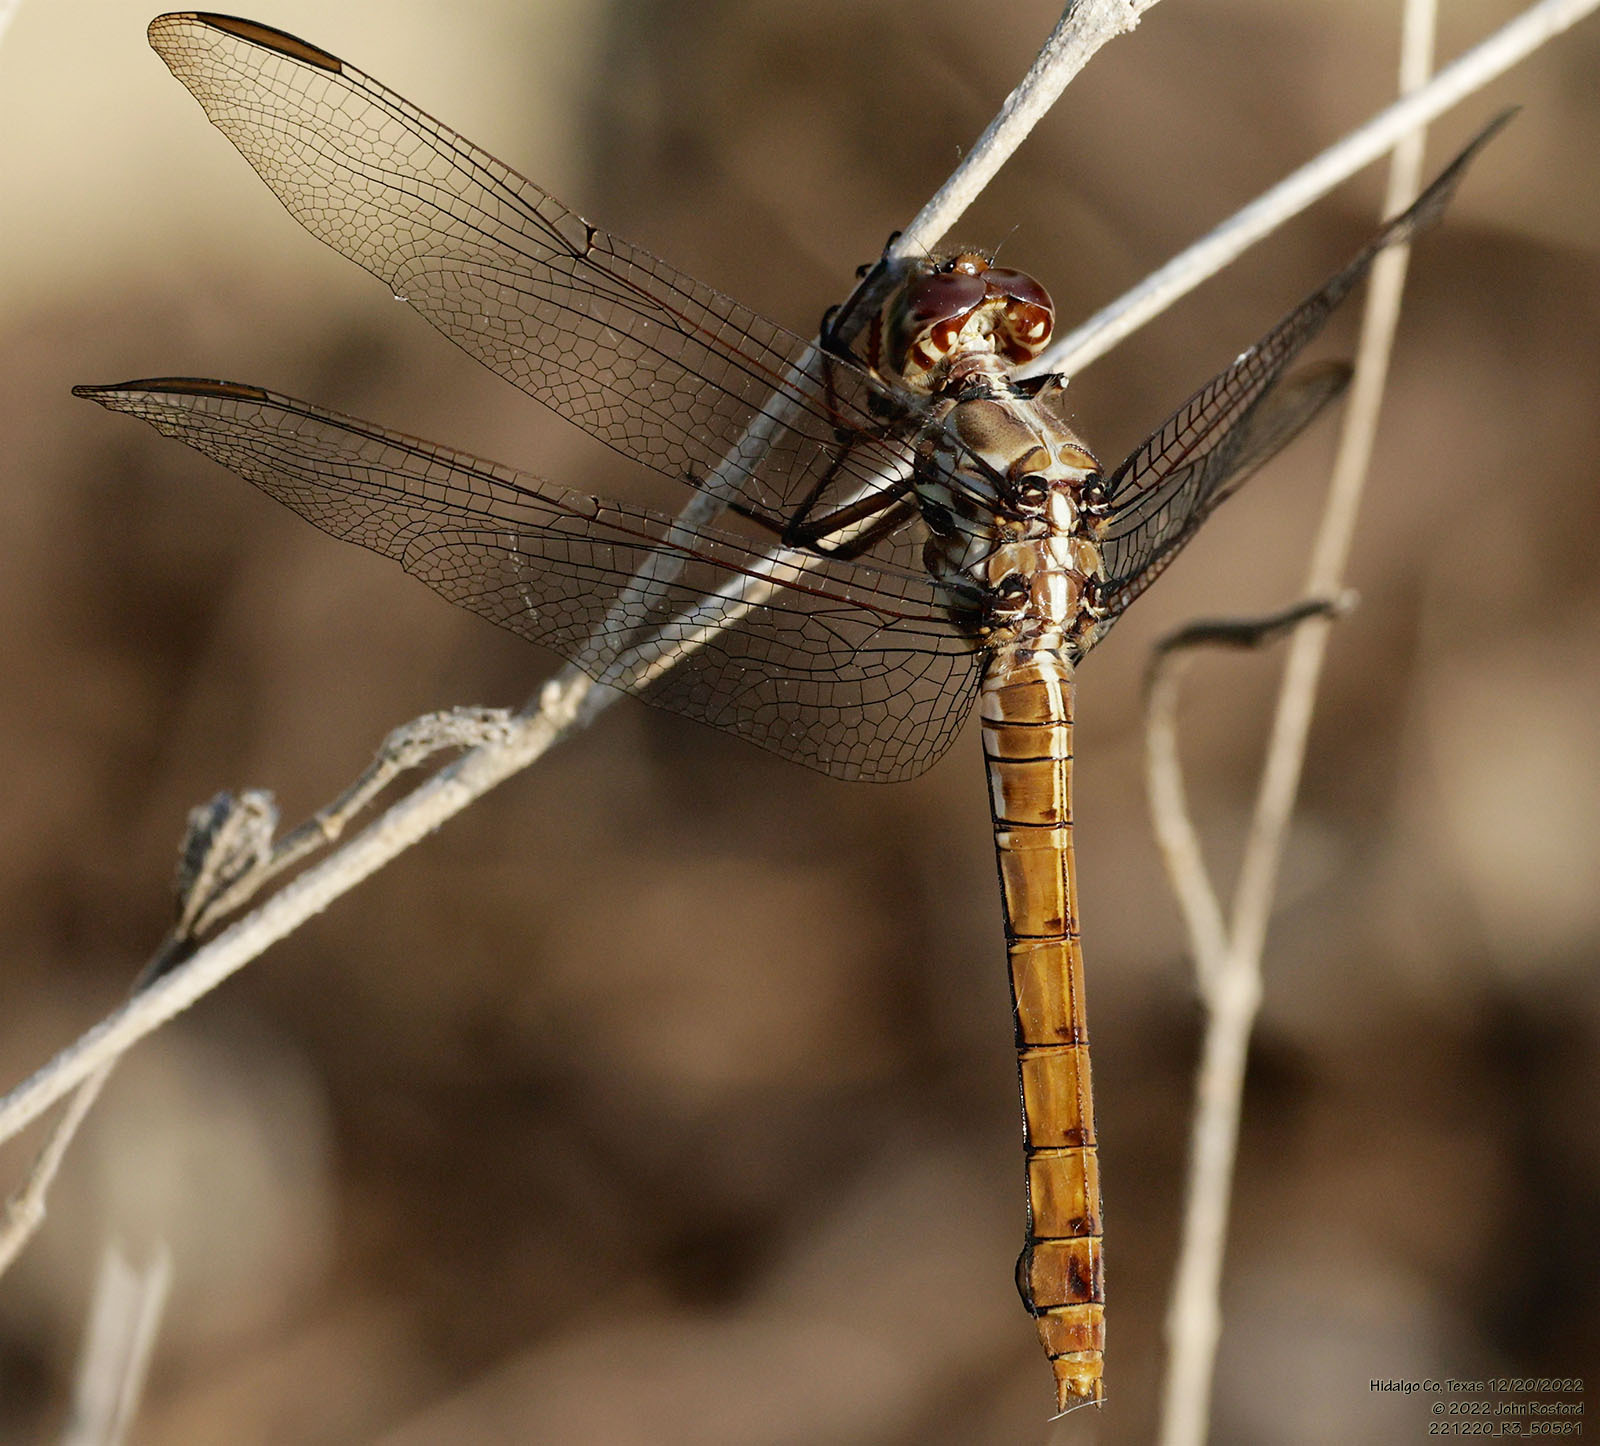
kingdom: Animalia
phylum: Arthropoda
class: Insecta
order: Odonata
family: Libellulidae
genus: Orthemis
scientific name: Orthemis ferruginea
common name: Roseate skimmer
